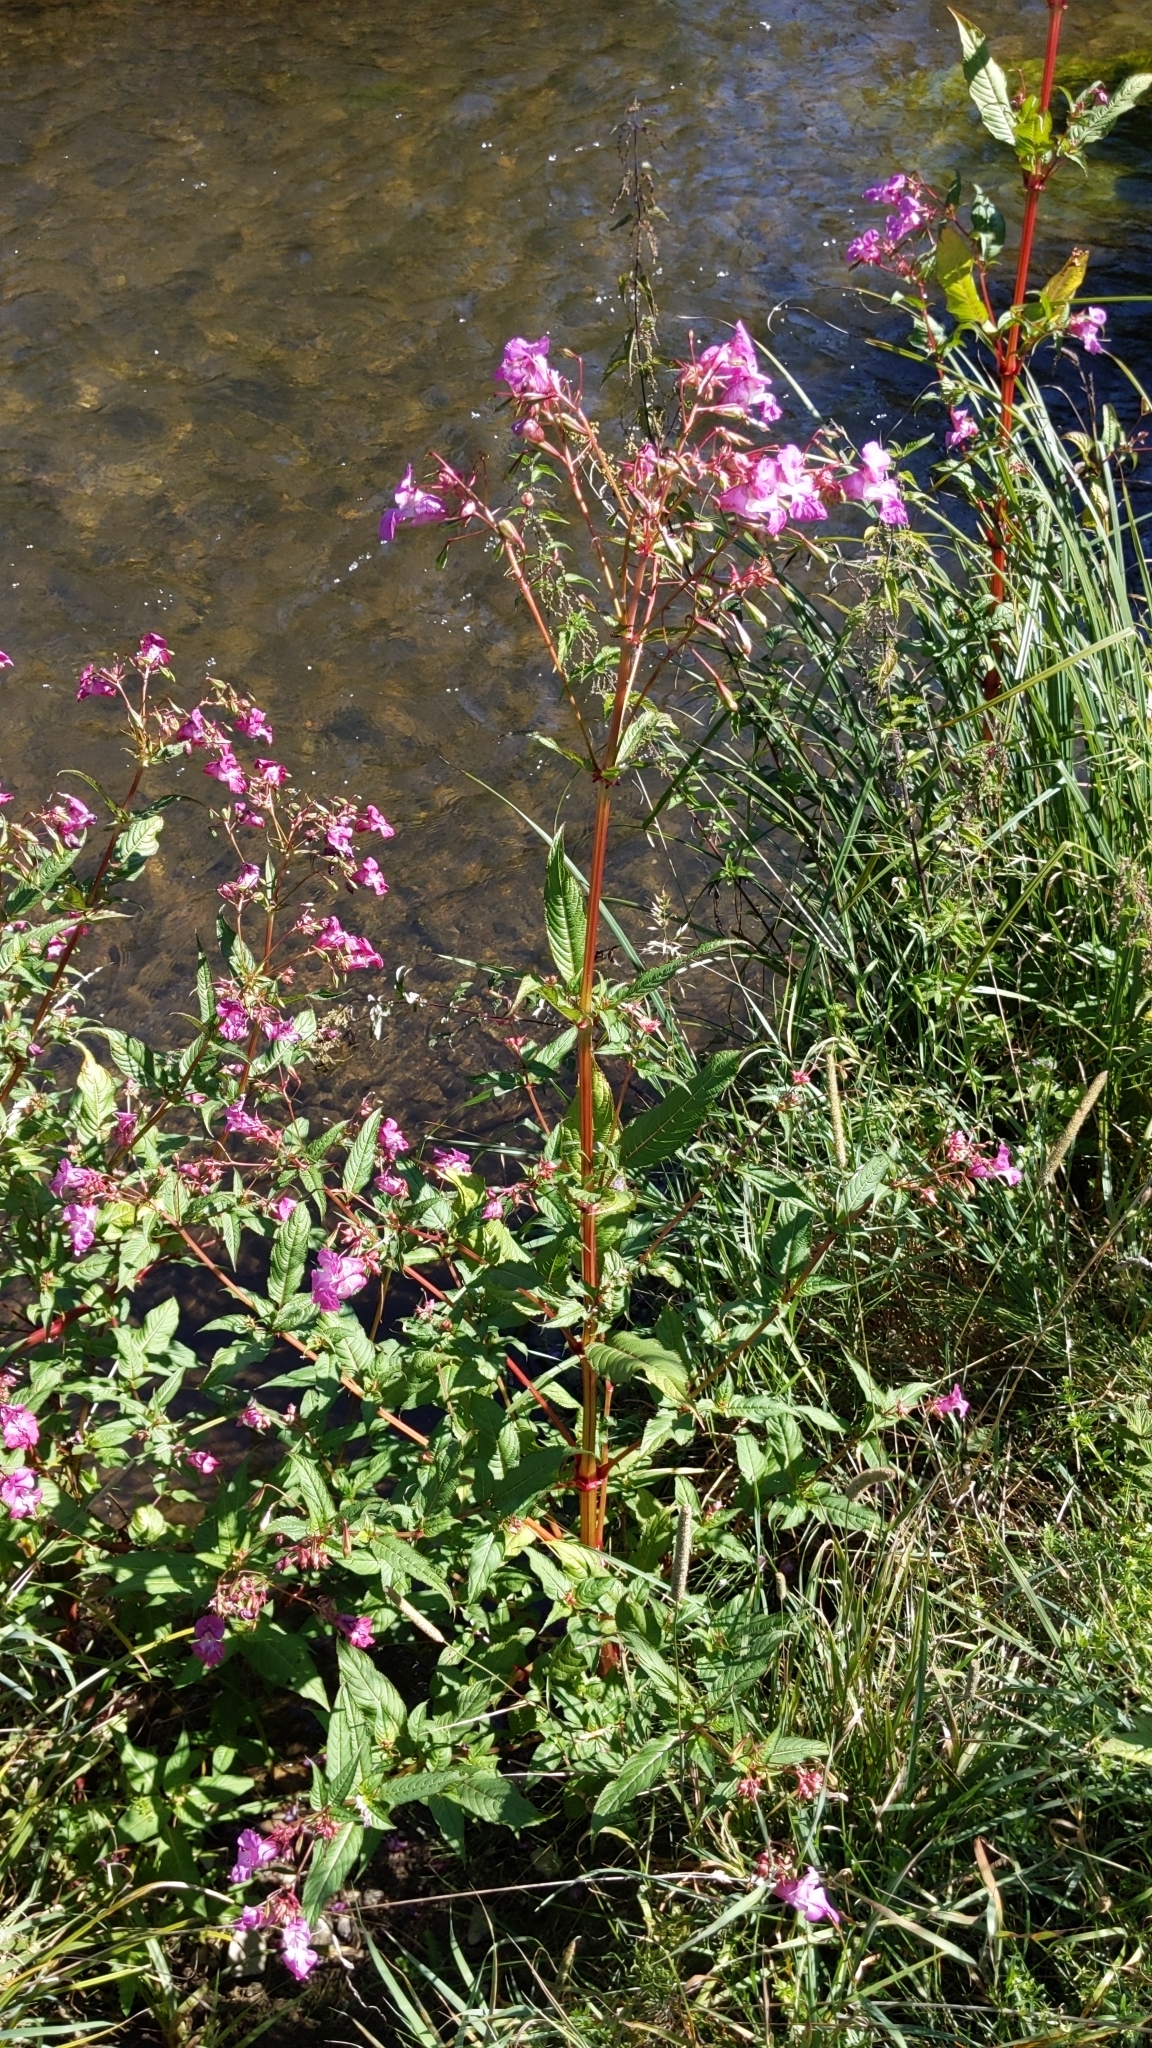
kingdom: Plantae
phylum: Tracheophyta
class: Magnoliopsida
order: Ericales
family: Balsaminaceae
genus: Impatiens
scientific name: Impatiens glandulifera
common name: Himalayan balsam
